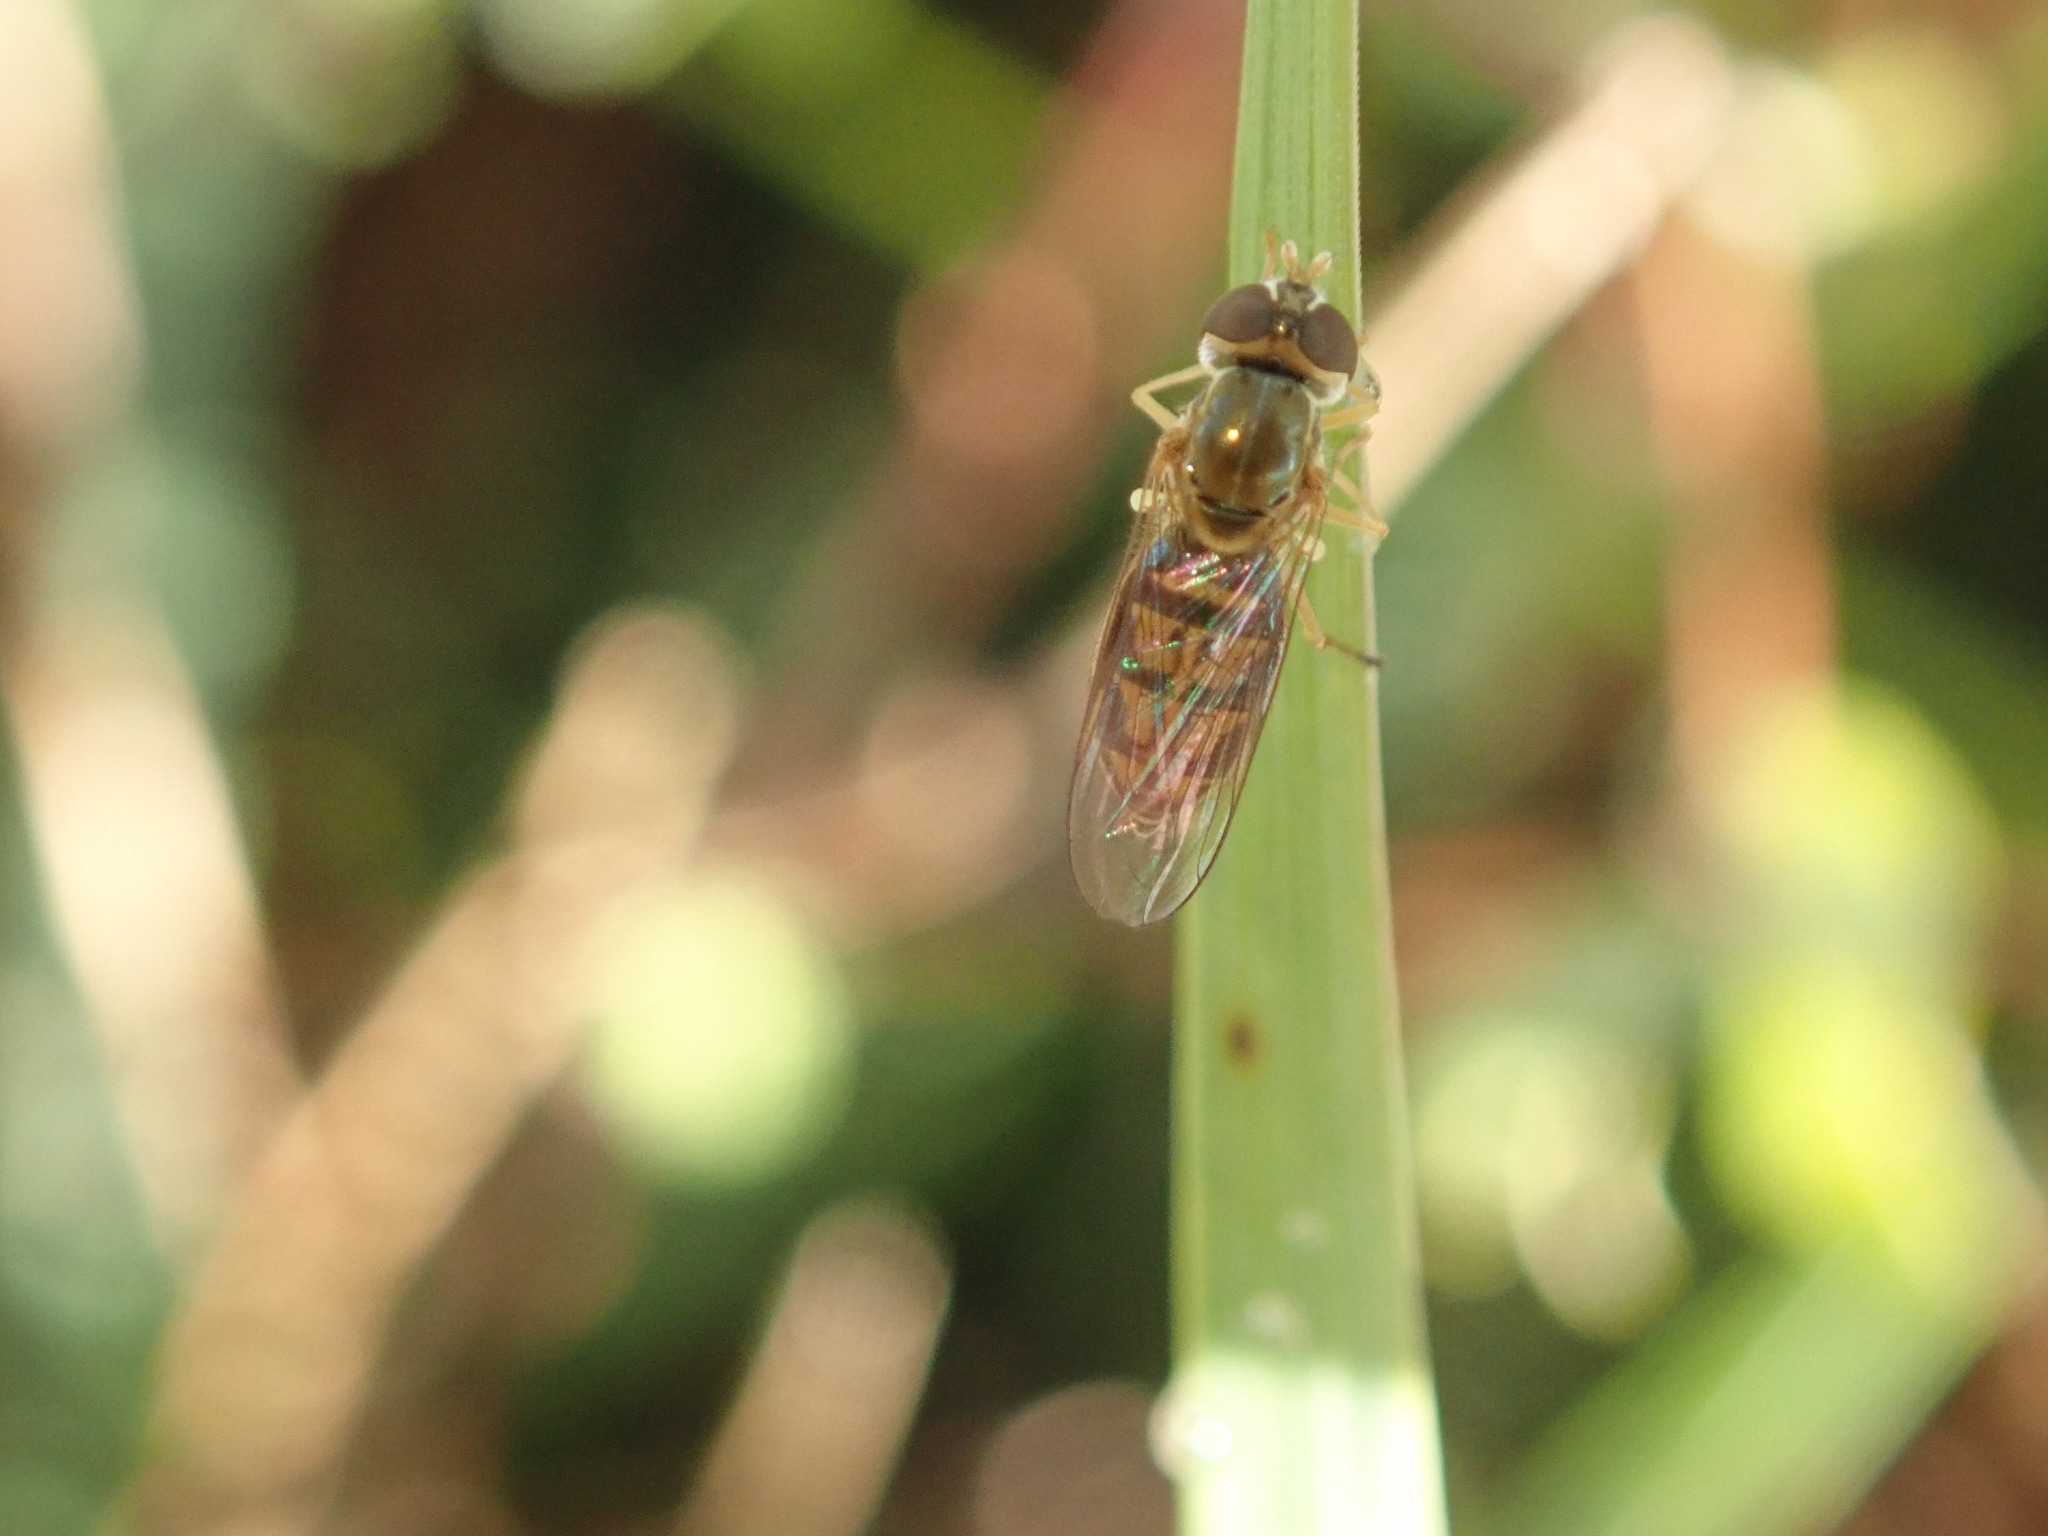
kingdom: Animalia
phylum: Arthropoda
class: Insecta
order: Diptera
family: Syrphidae
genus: Toxomerus
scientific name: Toxomerus marginatus
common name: Syrphid fly
